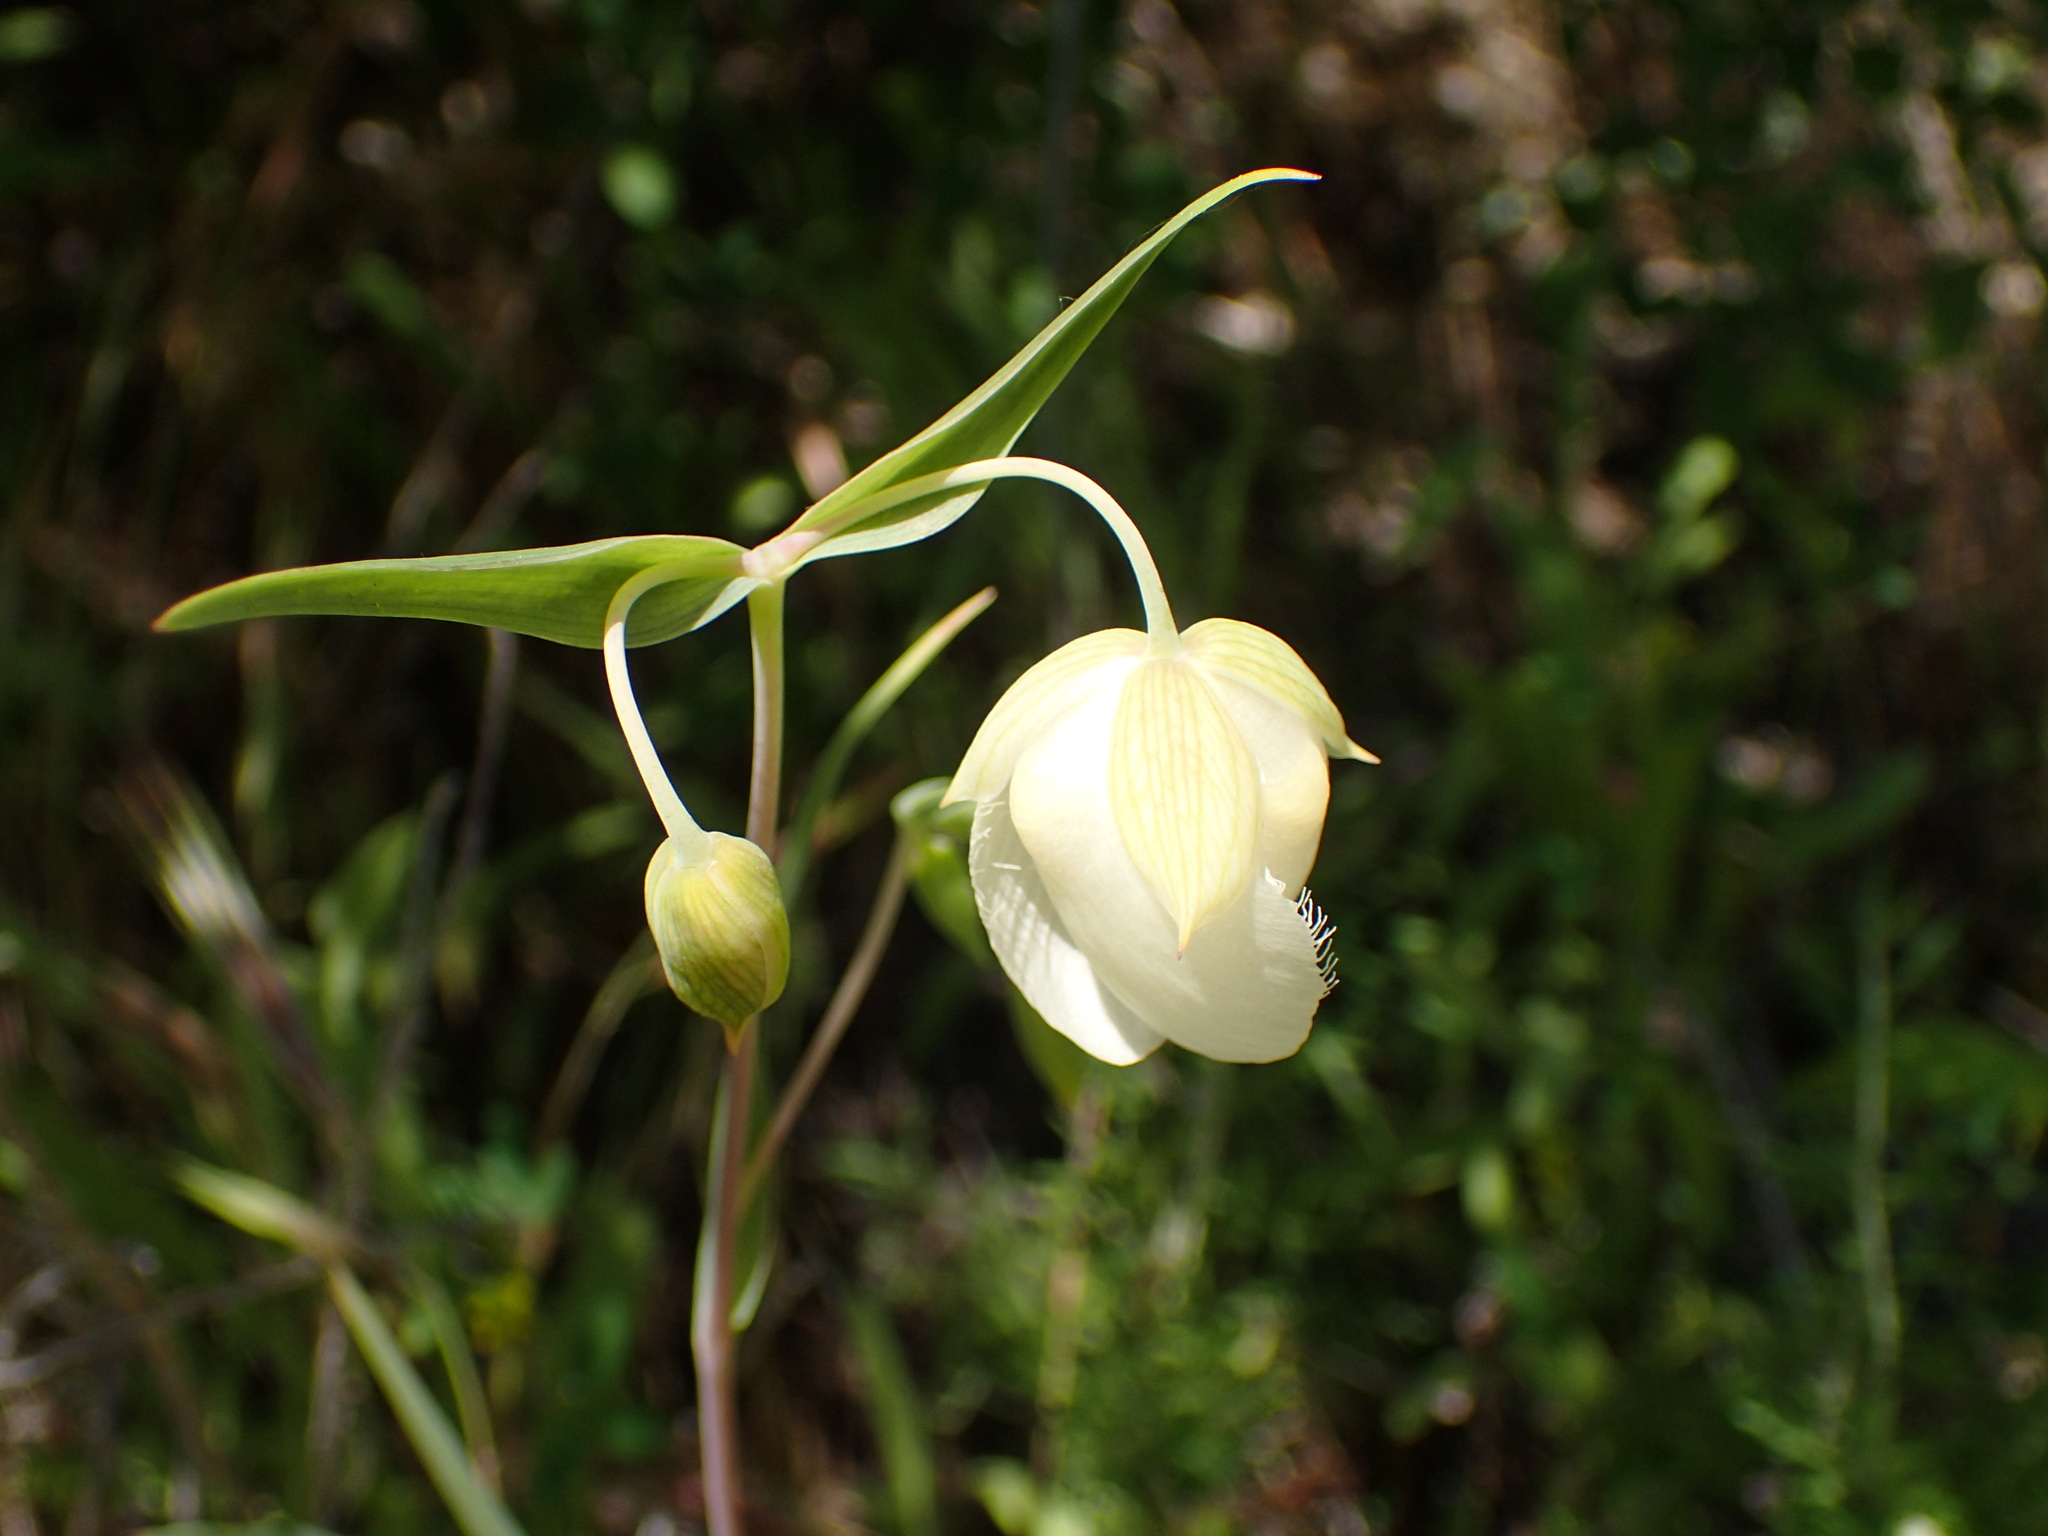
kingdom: Plantae
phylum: Tracheophyta
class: Liliopsida
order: Liliales
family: Liliaceae
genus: Calochortus
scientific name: Calochortus albus
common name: Fairy-lantern
